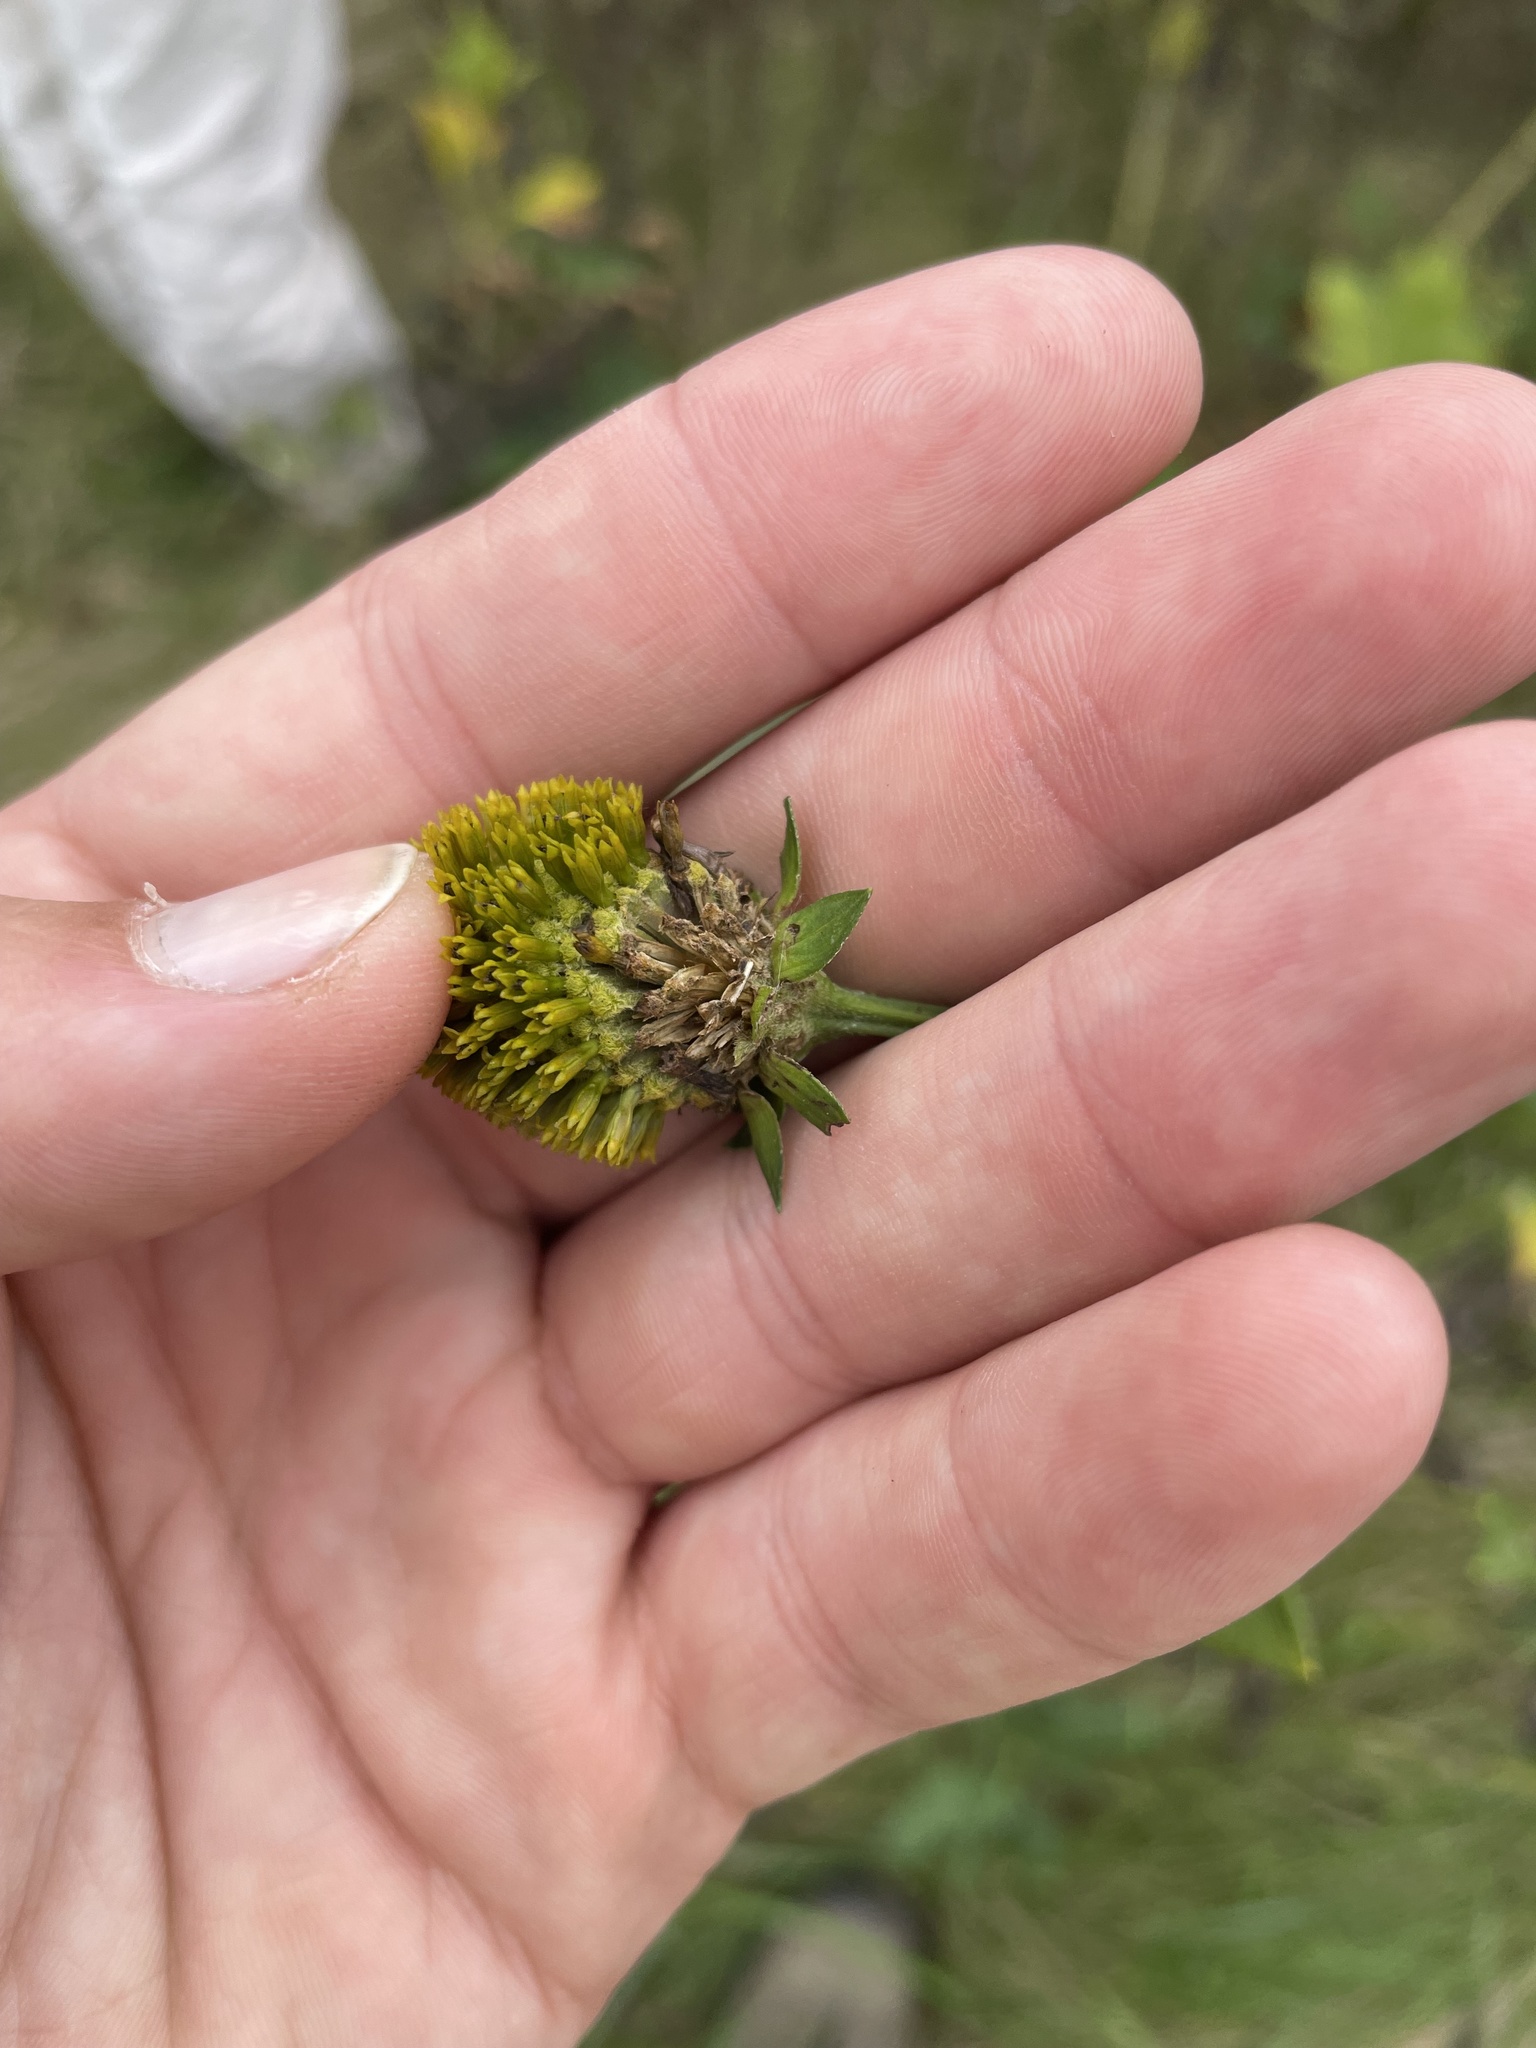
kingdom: Plantae
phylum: Tracheophyta
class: Magnoliopsida
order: Asterales
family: Asteraceae
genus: Rudbeckia
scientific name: Rudbeckia laciniata
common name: Coneflower
